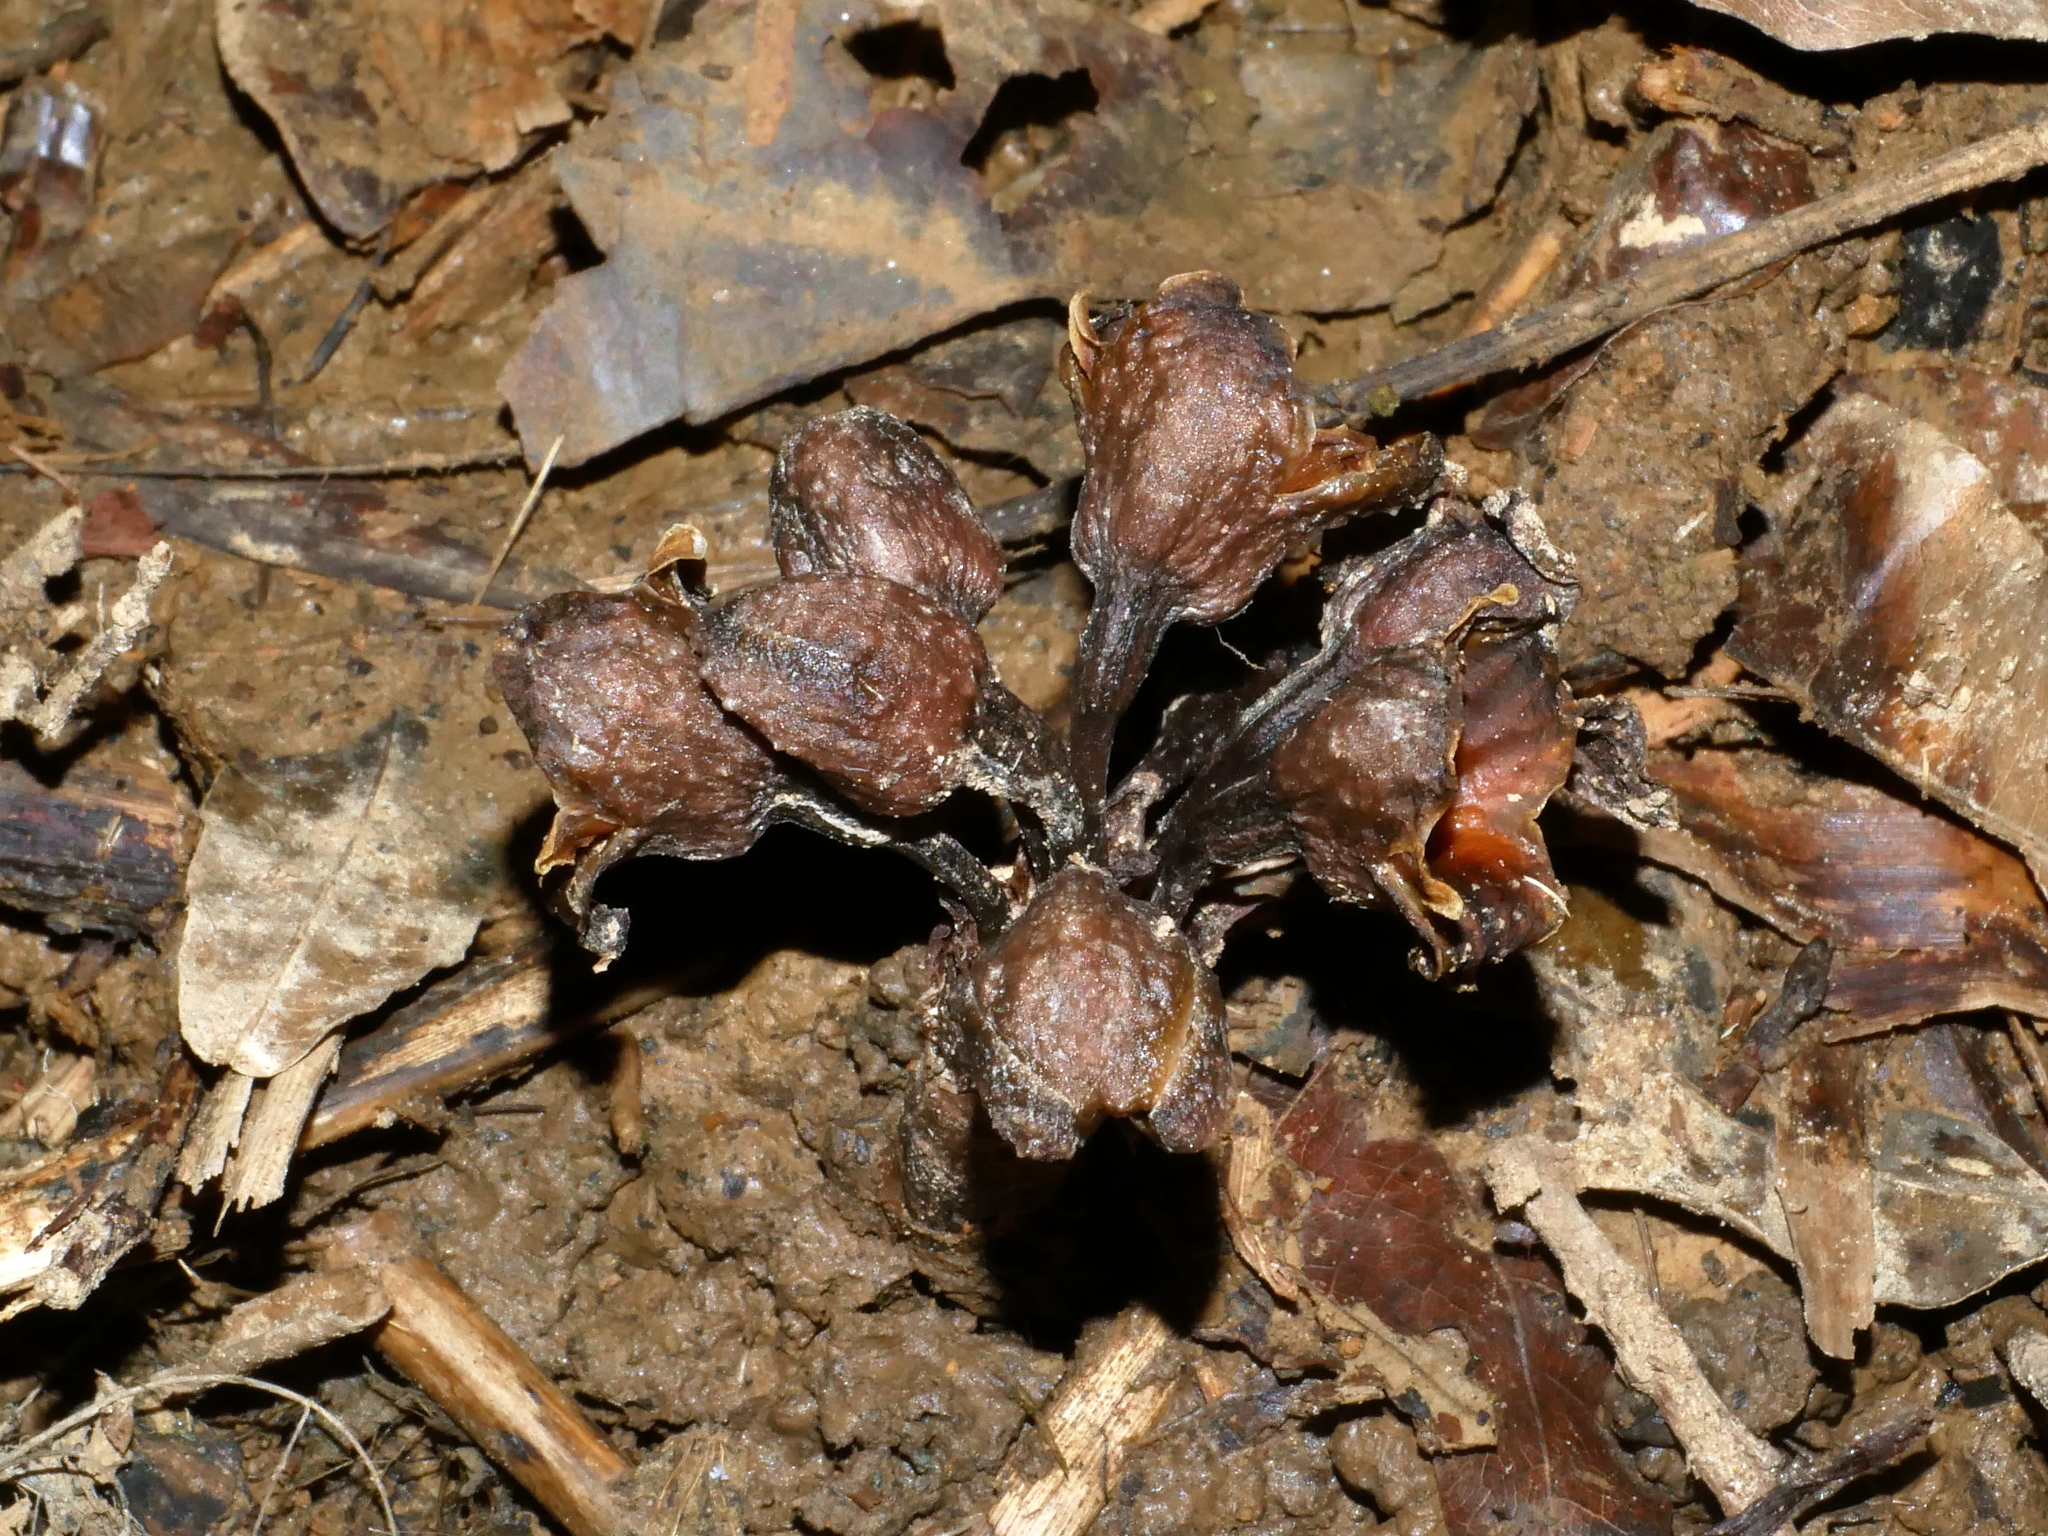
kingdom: Plantae
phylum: Tracheophyta
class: Liliopsida
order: Asparagales
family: Orchidaceae
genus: Gastrodia
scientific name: Gastrodia pubilabiata
